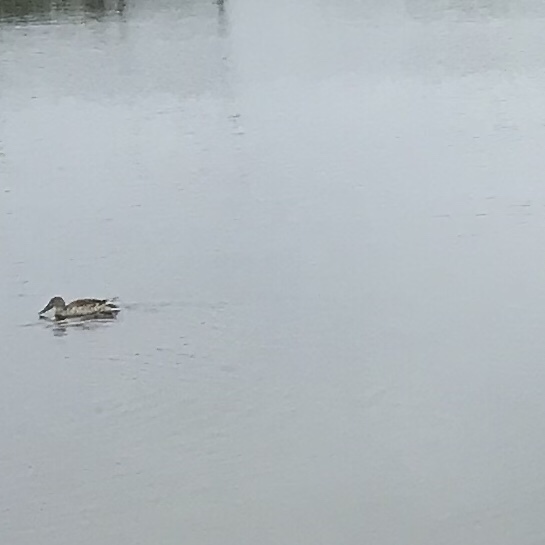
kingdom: Animalia
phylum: Chordata
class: Aves
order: Anseriformes
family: Anatidae
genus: Spatula
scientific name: Spatula clypeata
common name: Northern shoveler
